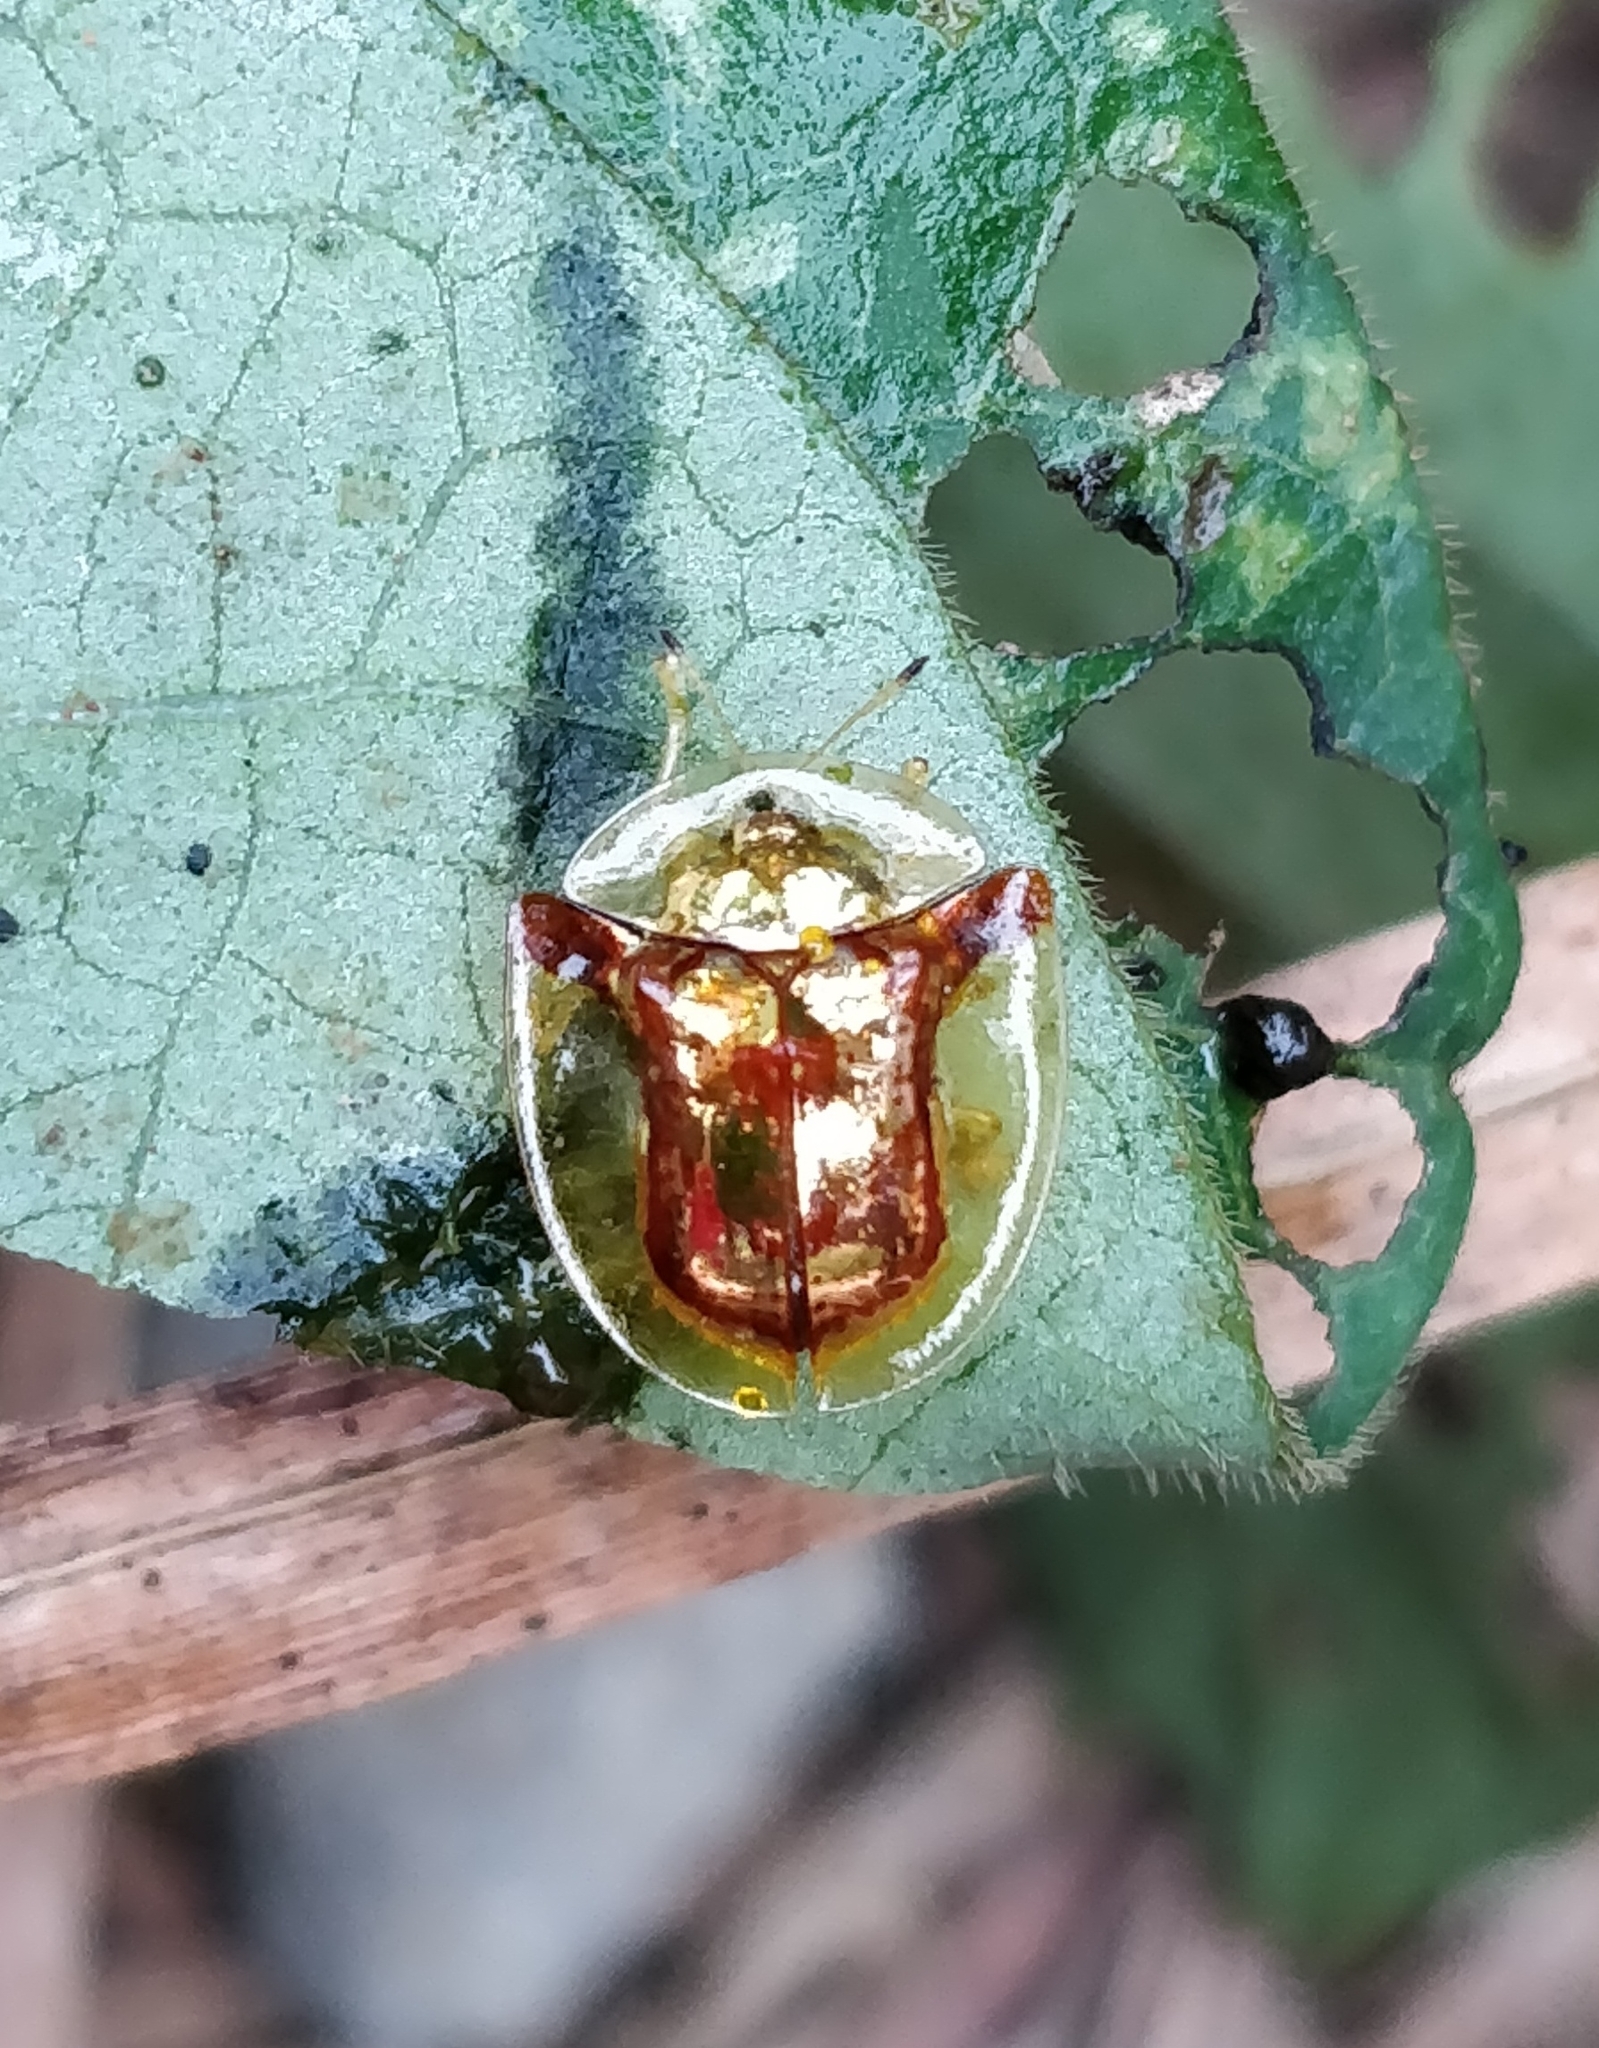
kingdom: Animalia
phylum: Arthropoda
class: Insecta
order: Coleoptera
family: Chrysomelidae
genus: Aspidimorpha
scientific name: Aspidimorpha furcata
